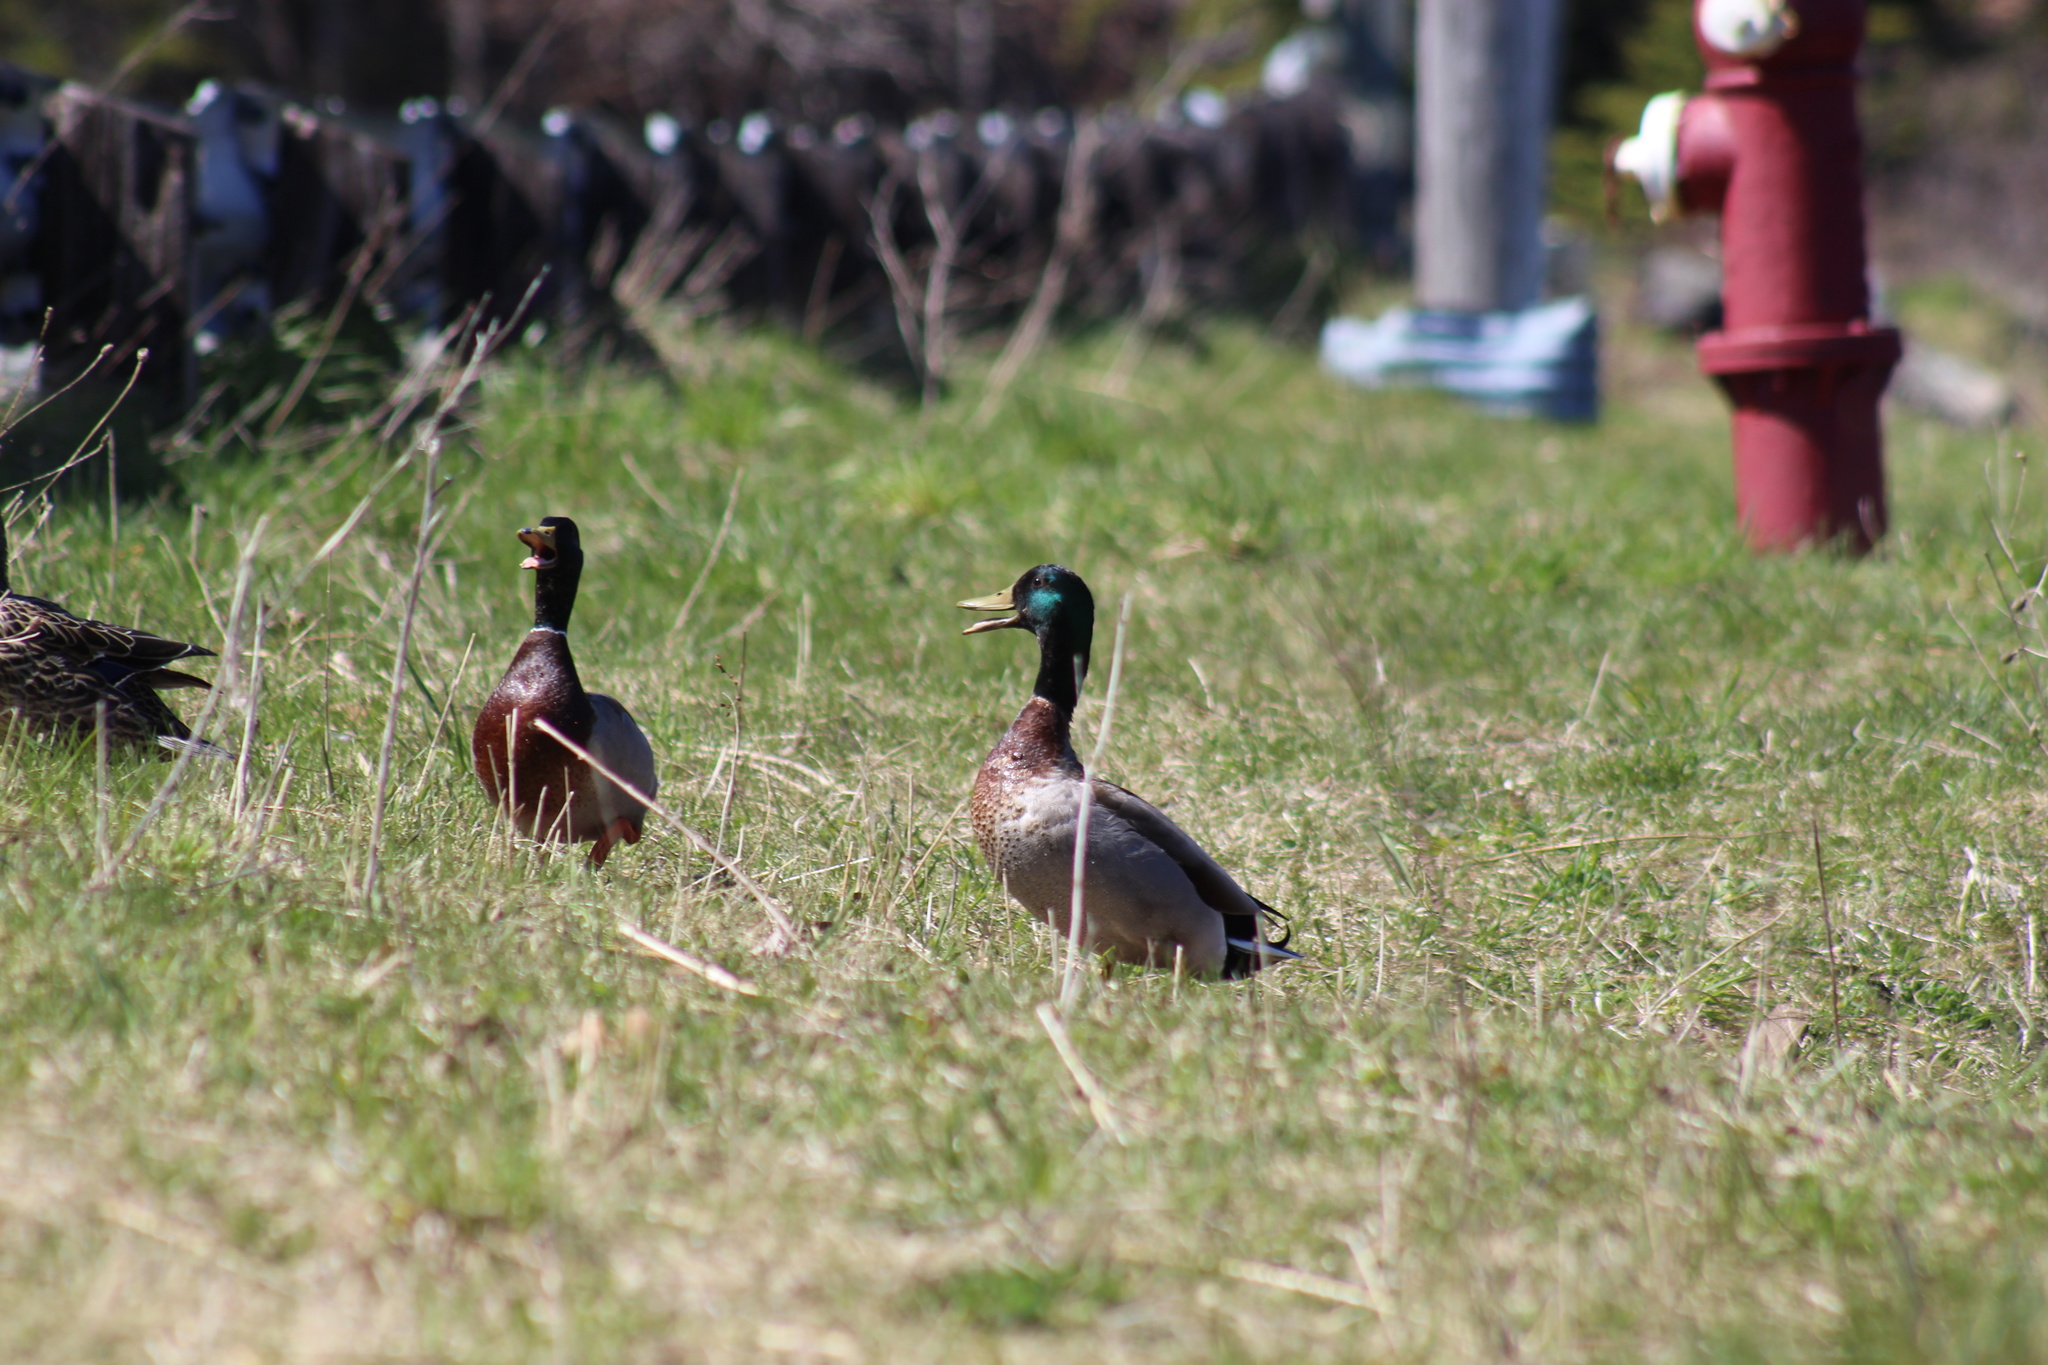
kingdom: Animalia
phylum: Chordata
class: Aves
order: Anseriformes
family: Anatidae
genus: Anas
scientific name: Anas platyrhynchos
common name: Mallard
